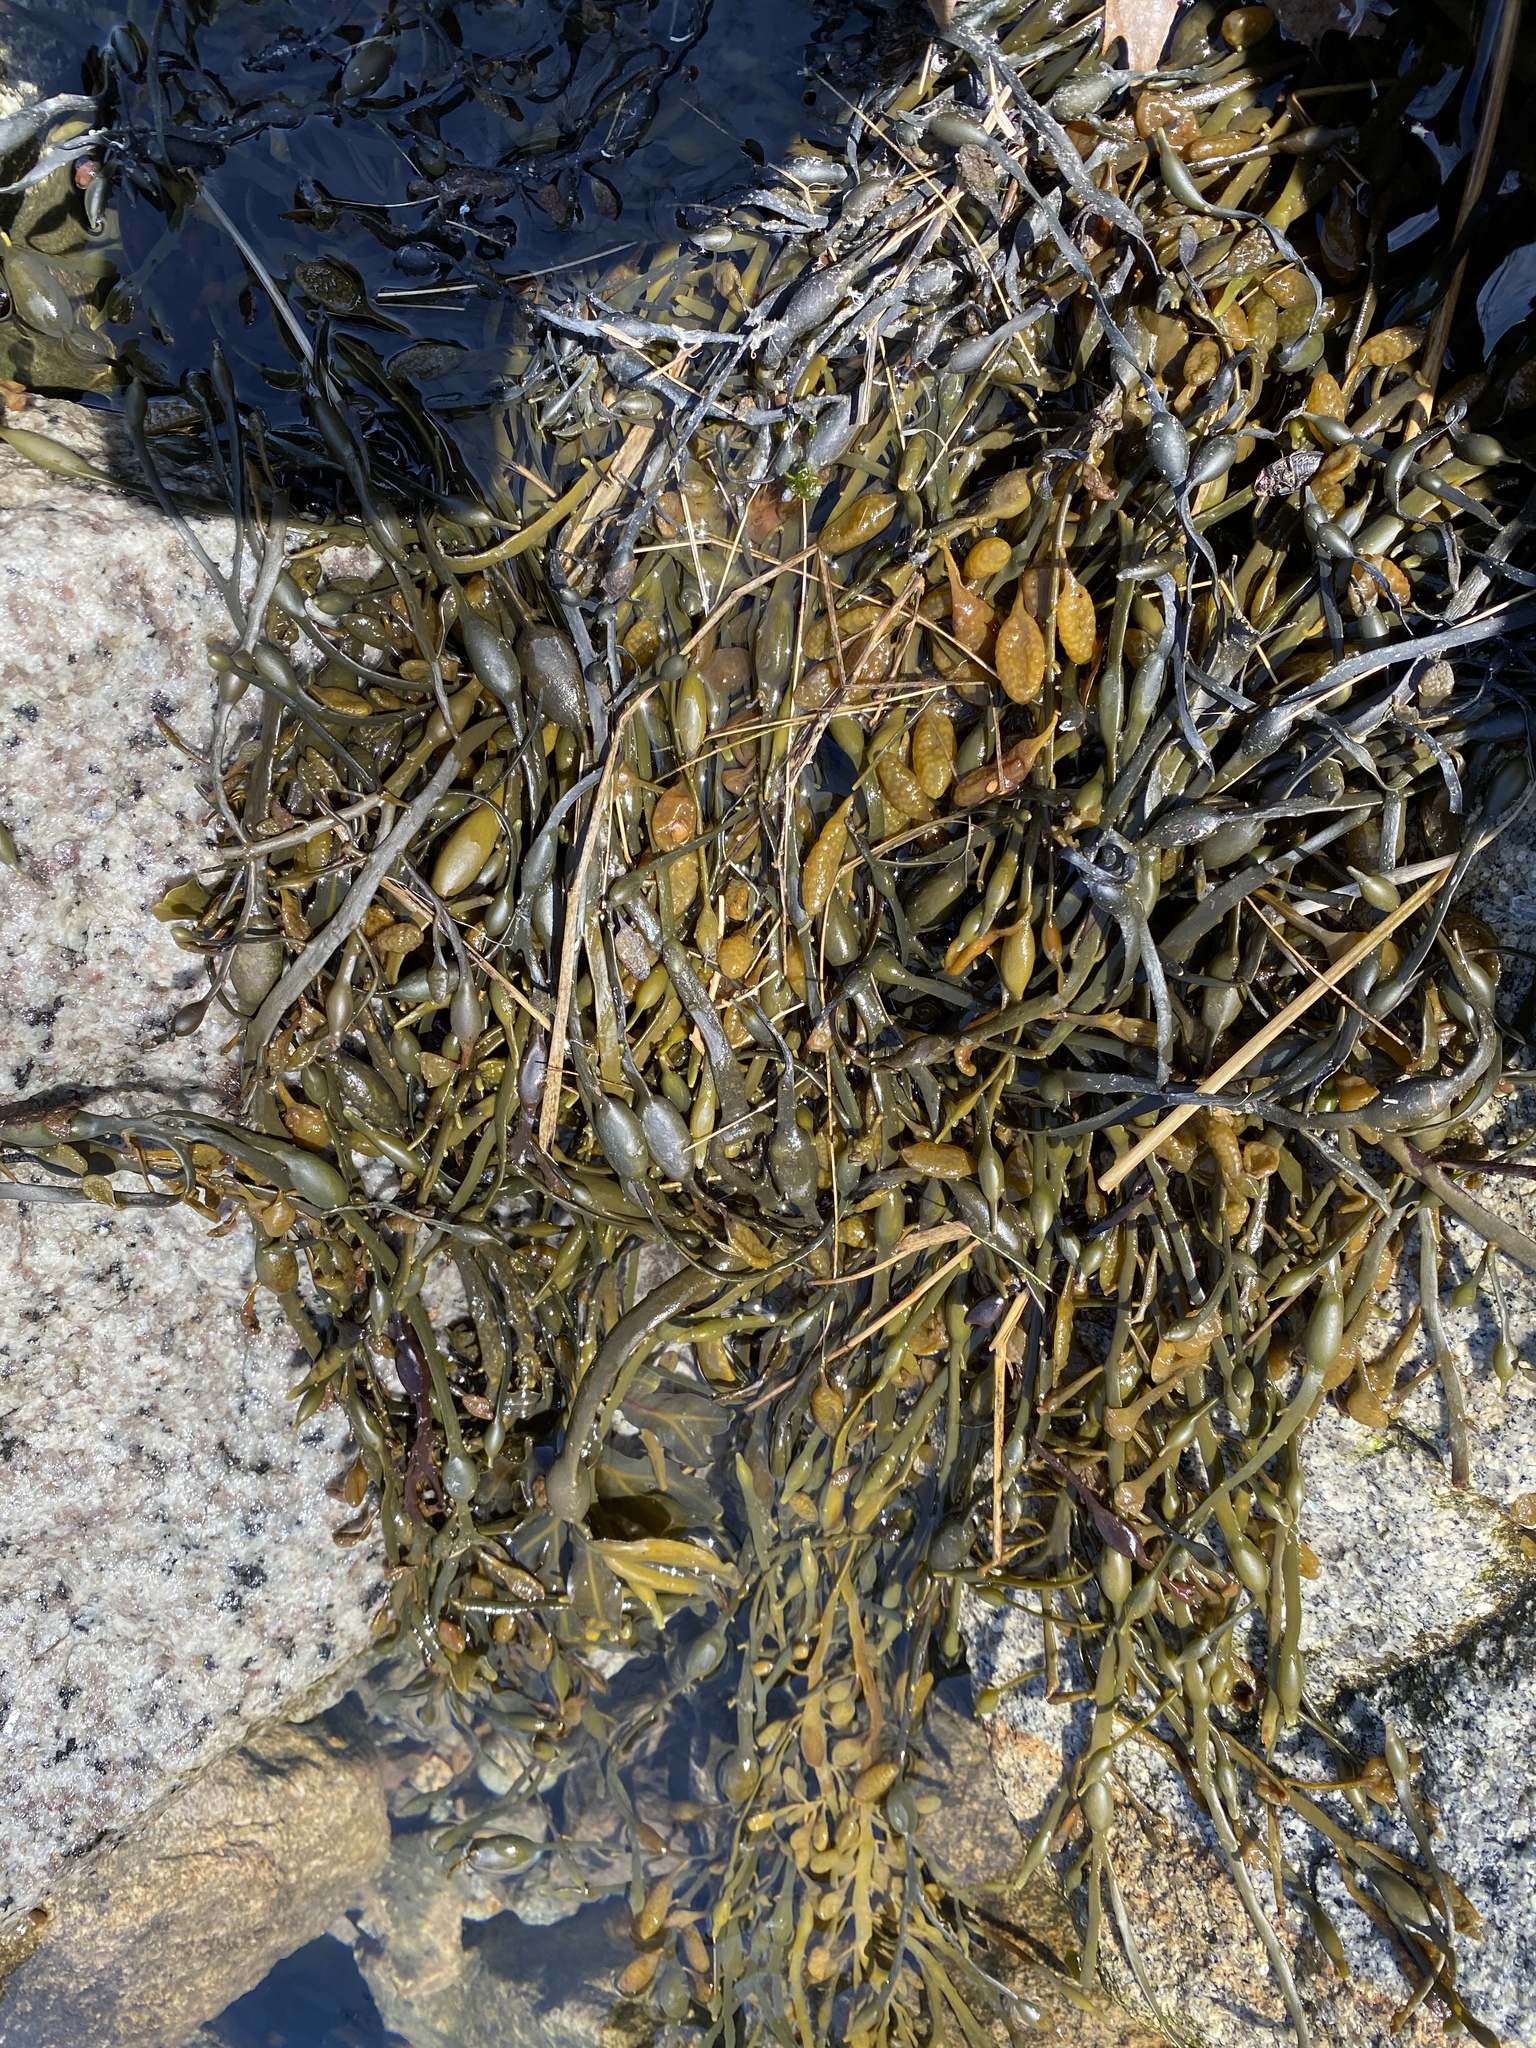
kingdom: Chromista
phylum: Ochrophyta
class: Phaeophyceae
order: Fucales
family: Fucaceae
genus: Ascophyllum
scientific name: Ascophyllum nodosum
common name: Knotted wrack
